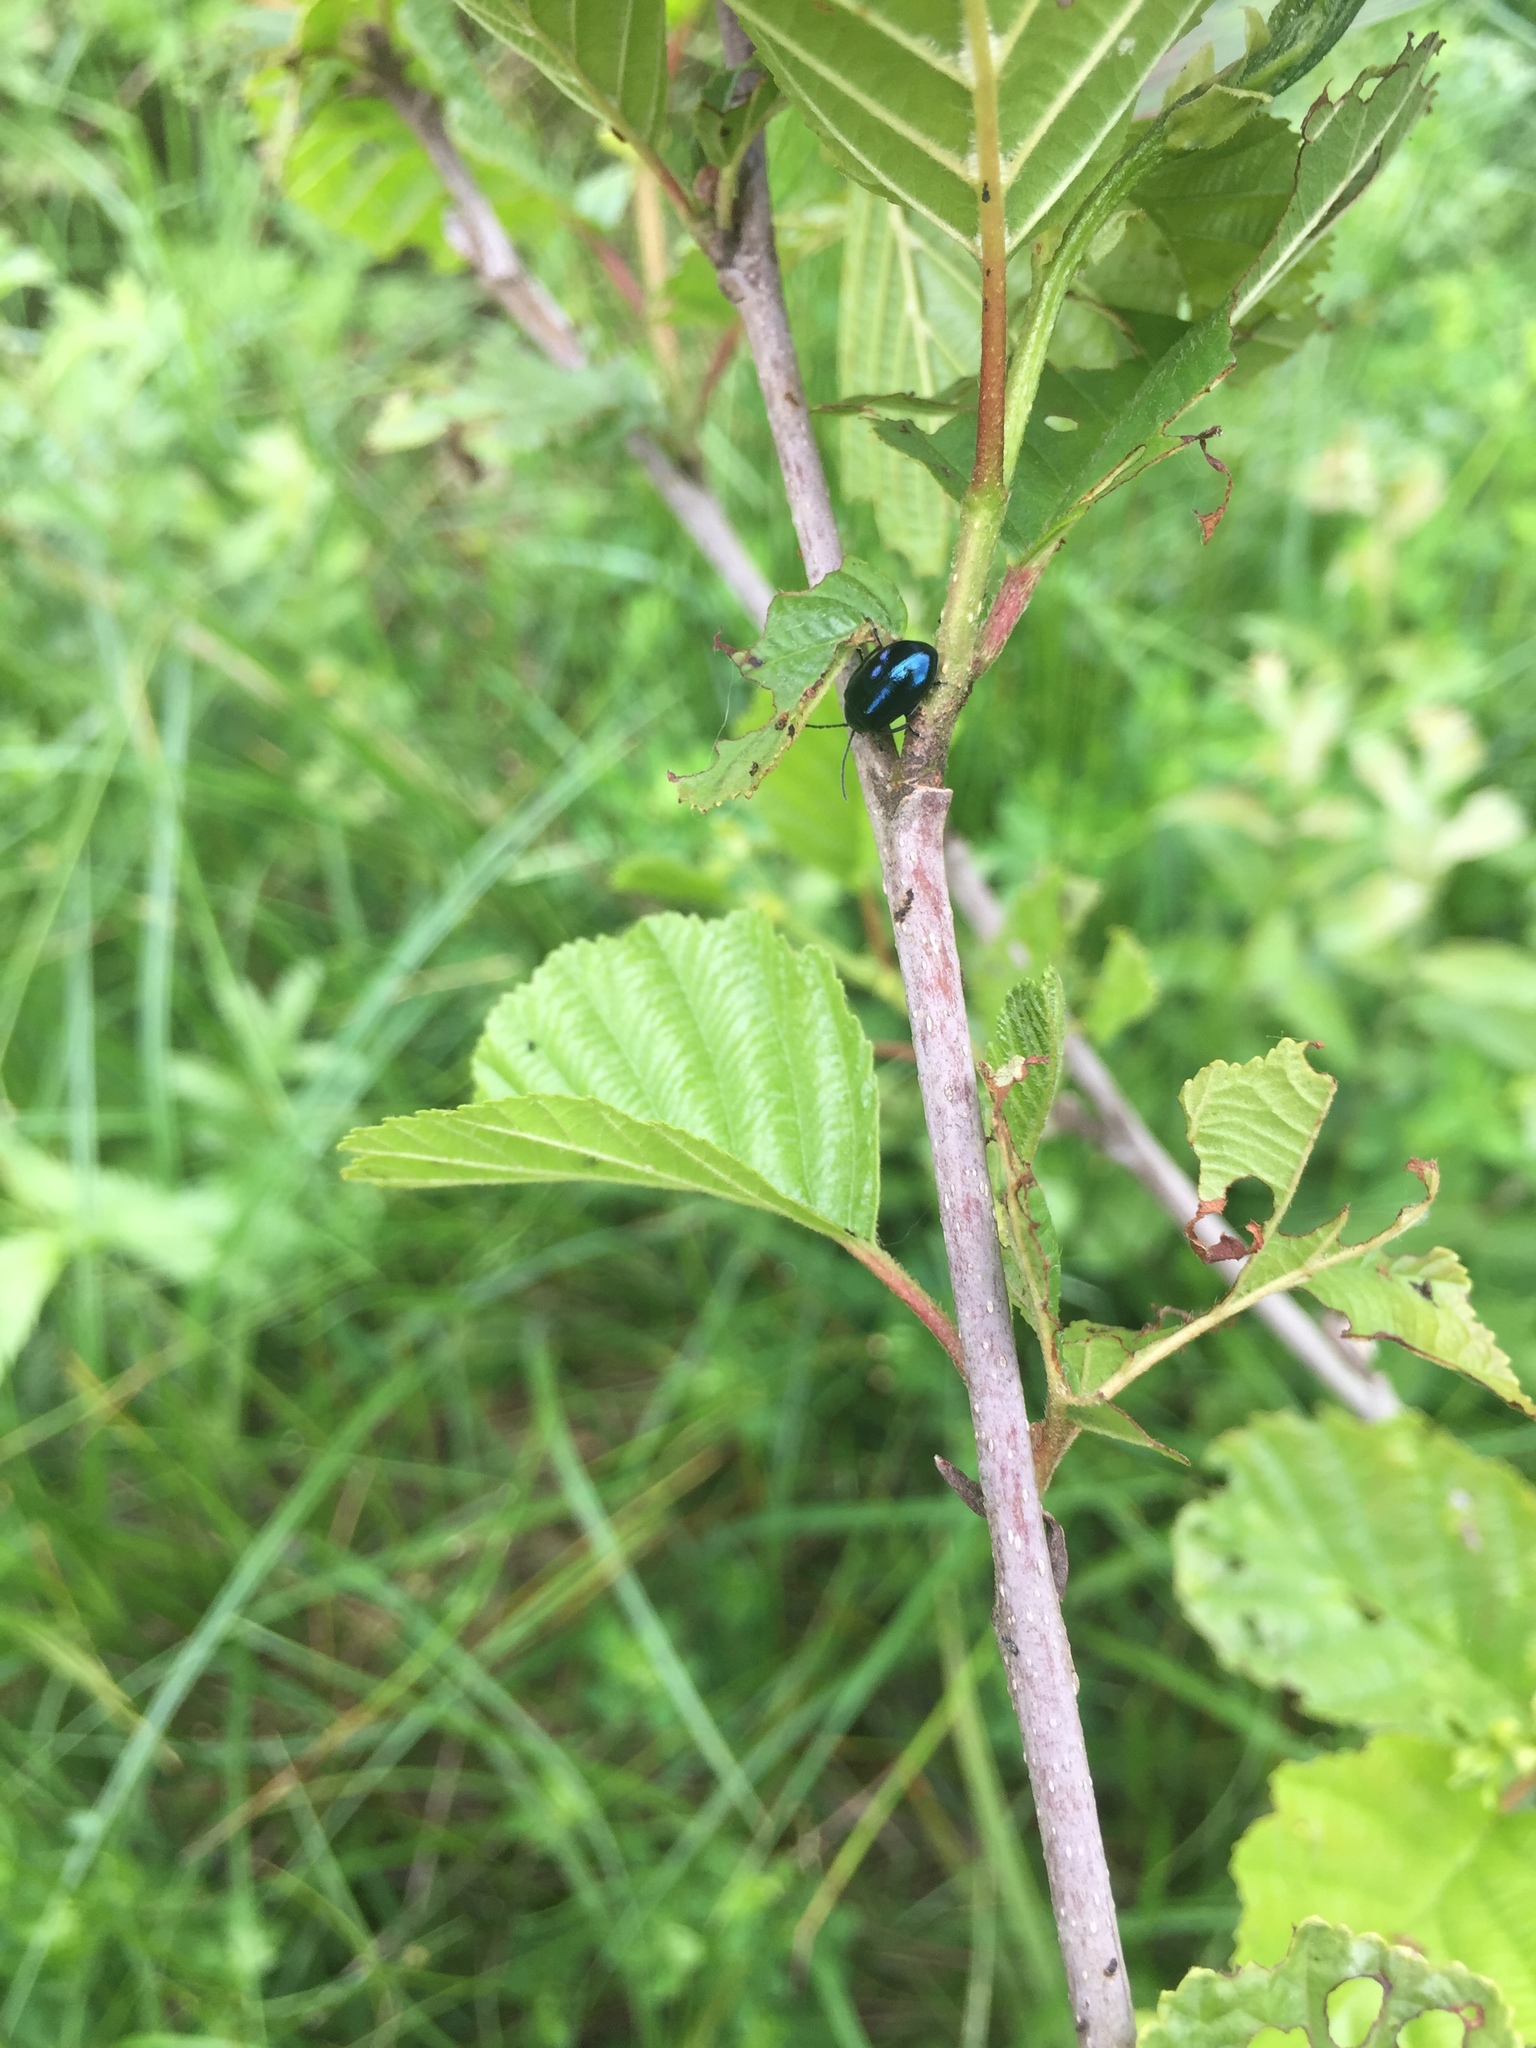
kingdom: Animalia
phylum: Arthropoda
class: Insecta
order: Coleoptera
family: Chrysomelidae
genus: Agelastica
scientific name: Agelastica alni
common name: Alder leaf beetle
